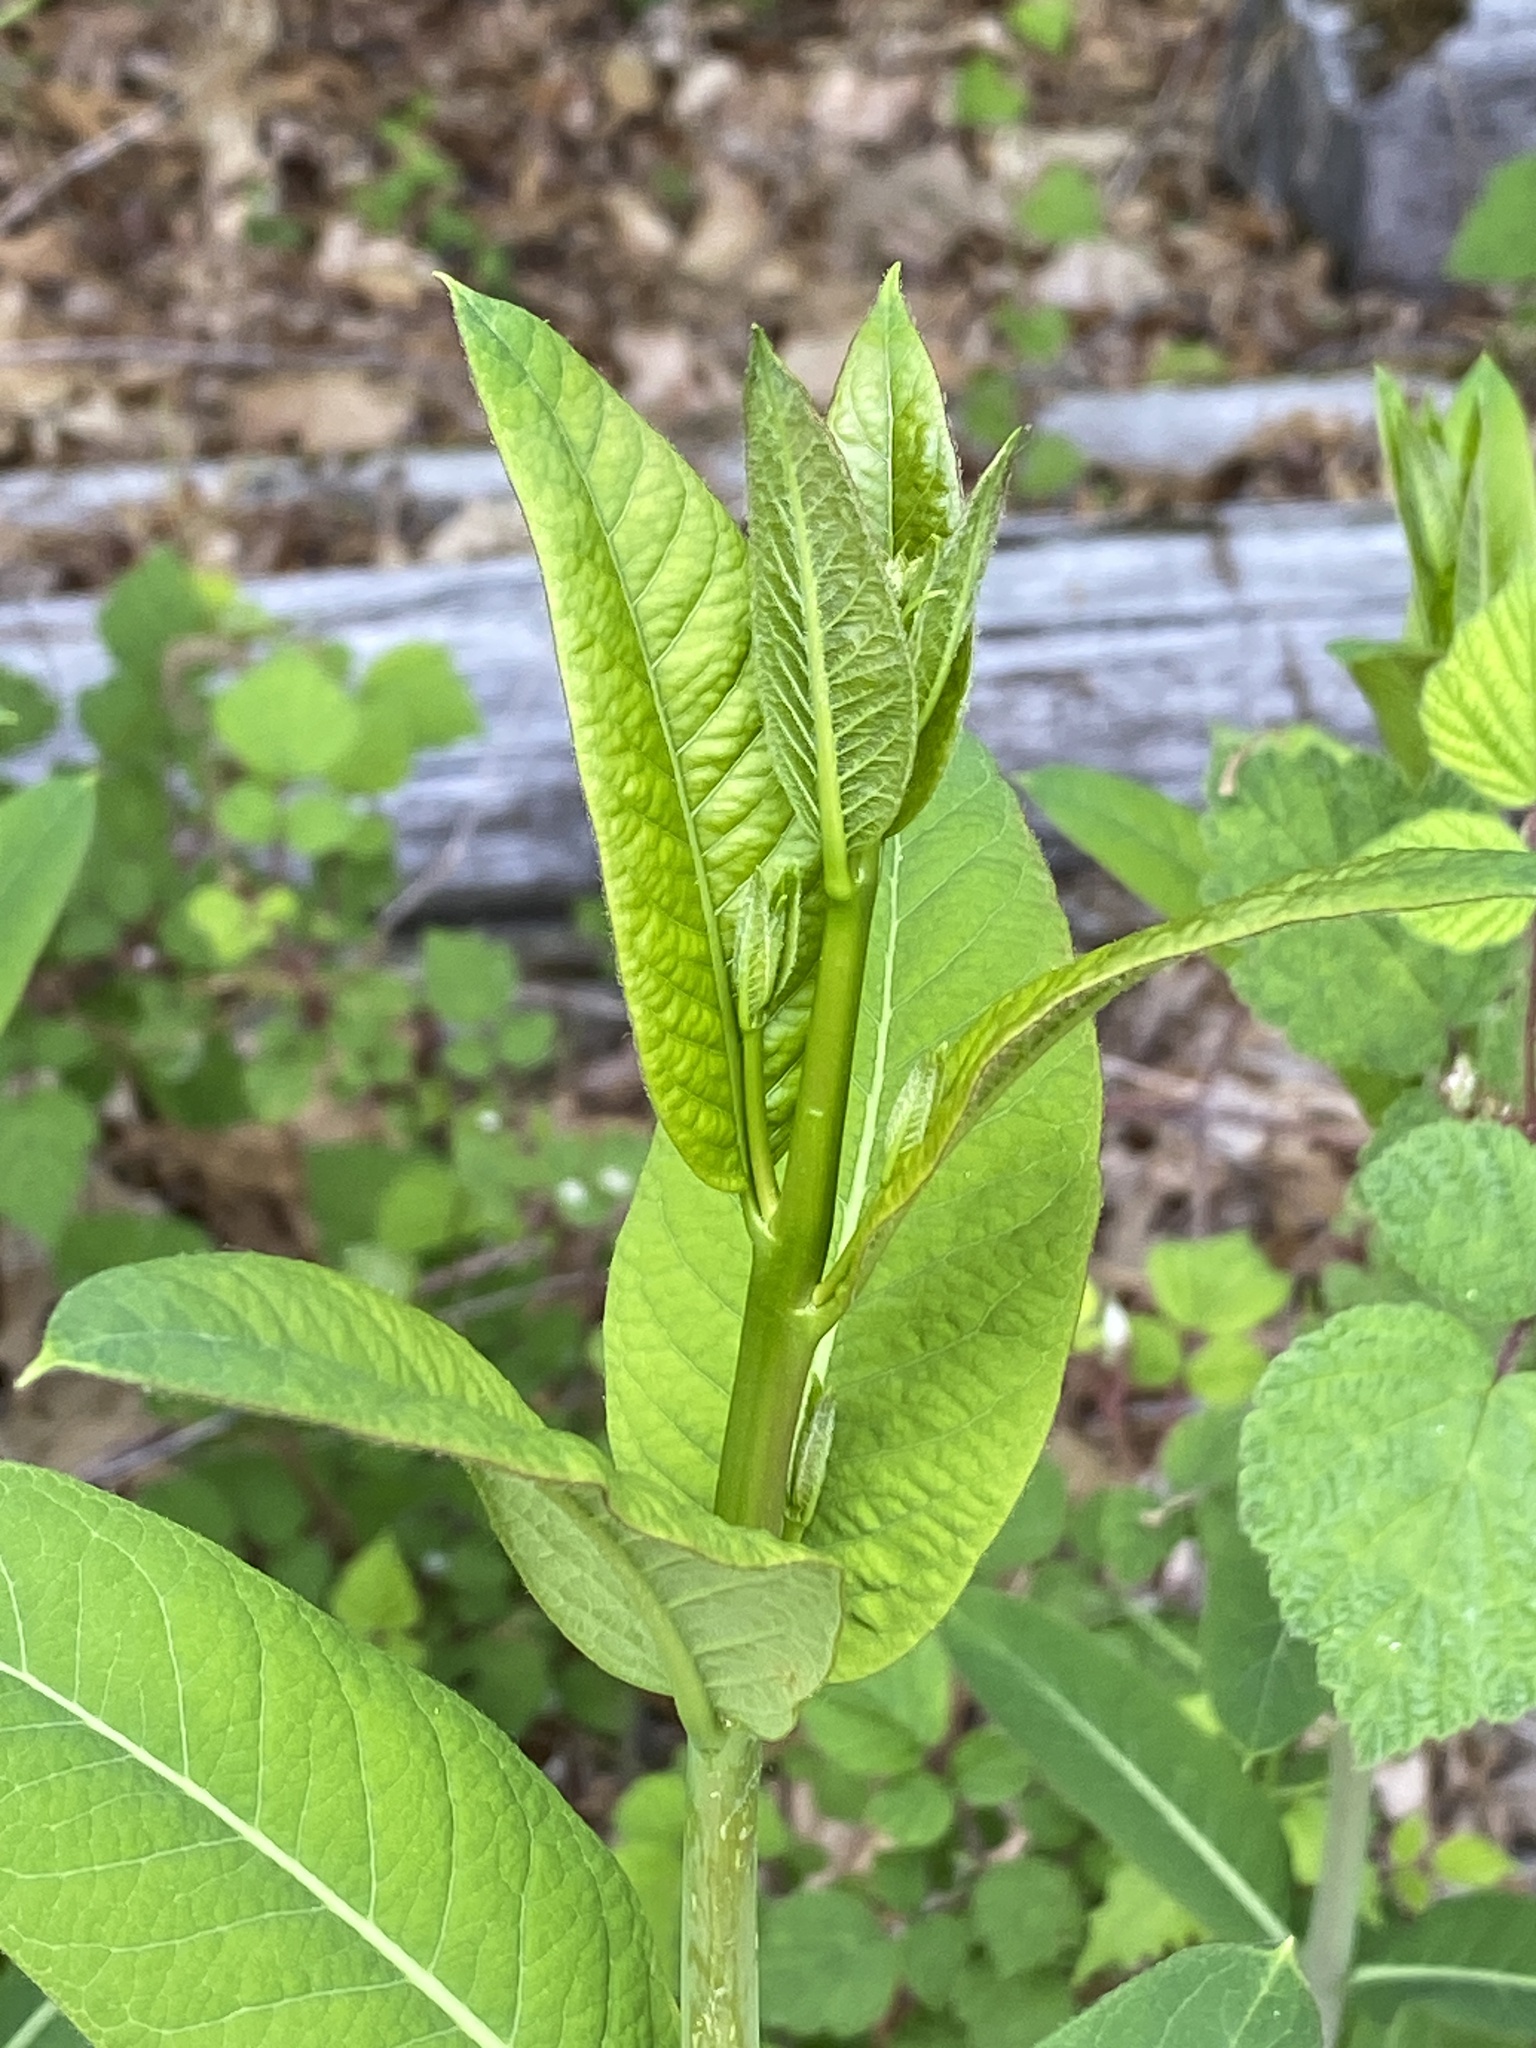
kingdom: Plantae
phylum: Tracheophyta
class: Magnoliopsida
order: Gentianales
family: Apocynaceae
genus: Apocynum
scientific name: Apocynum cannabinum
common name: Hemp dogbane
